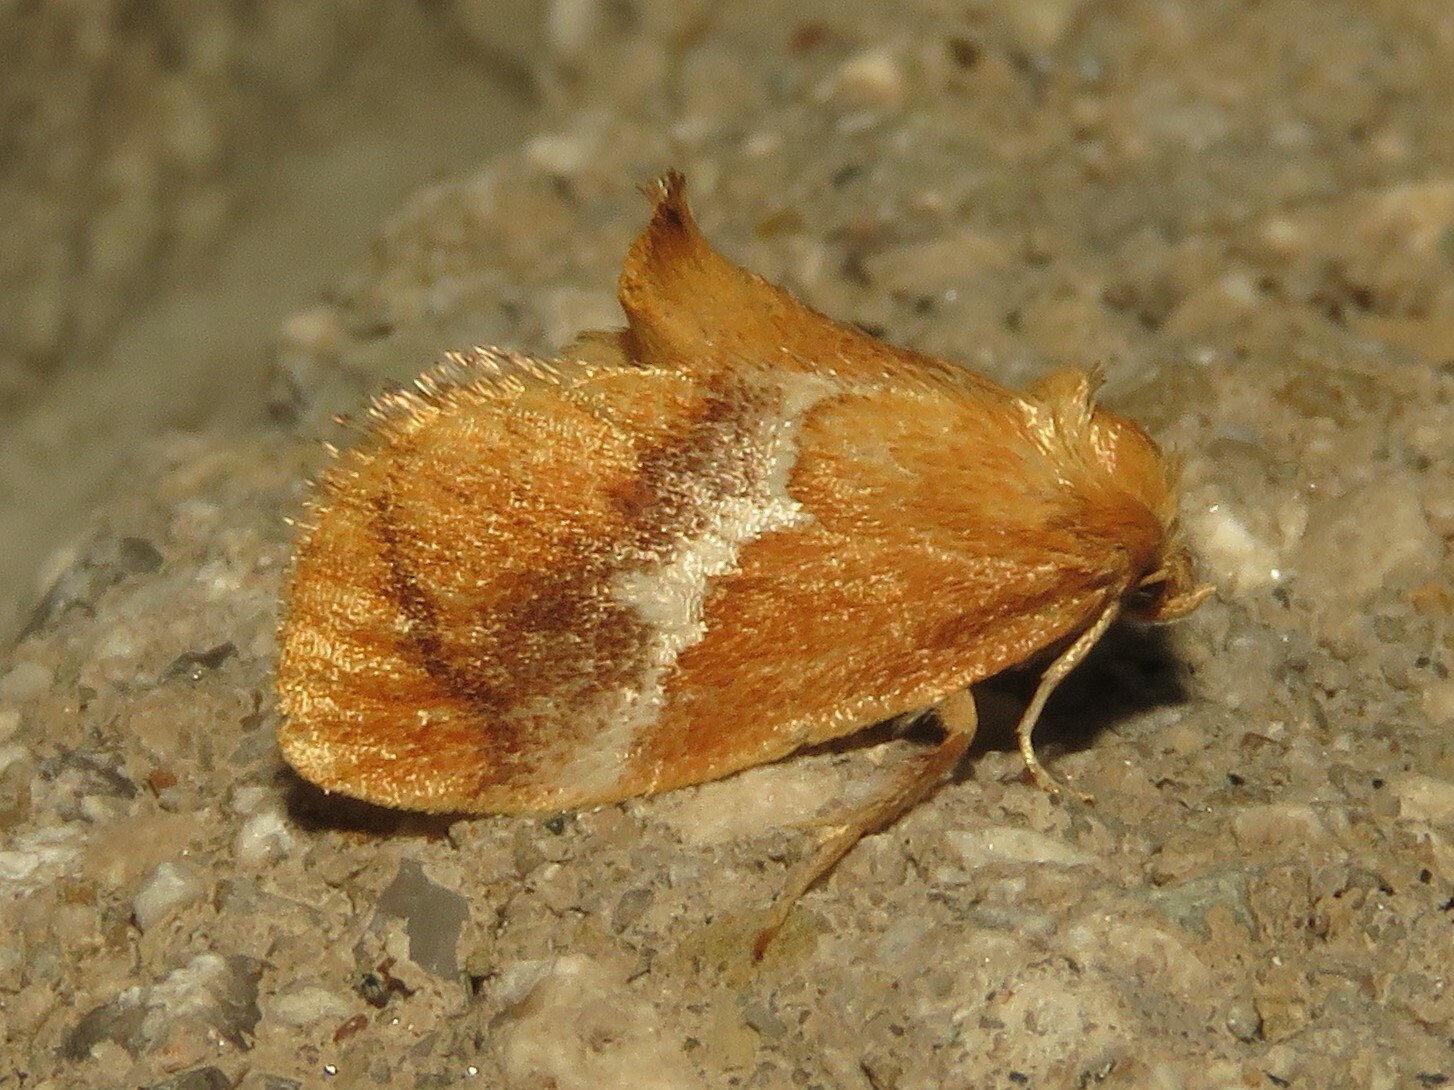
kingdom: Animalia
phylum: Arthropoda
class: Insecta
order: Lepidoptera
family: Limacodidae
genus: Lithacodes
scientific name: Lithacodes fasciola
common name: Yellow-shouldered slug moth
